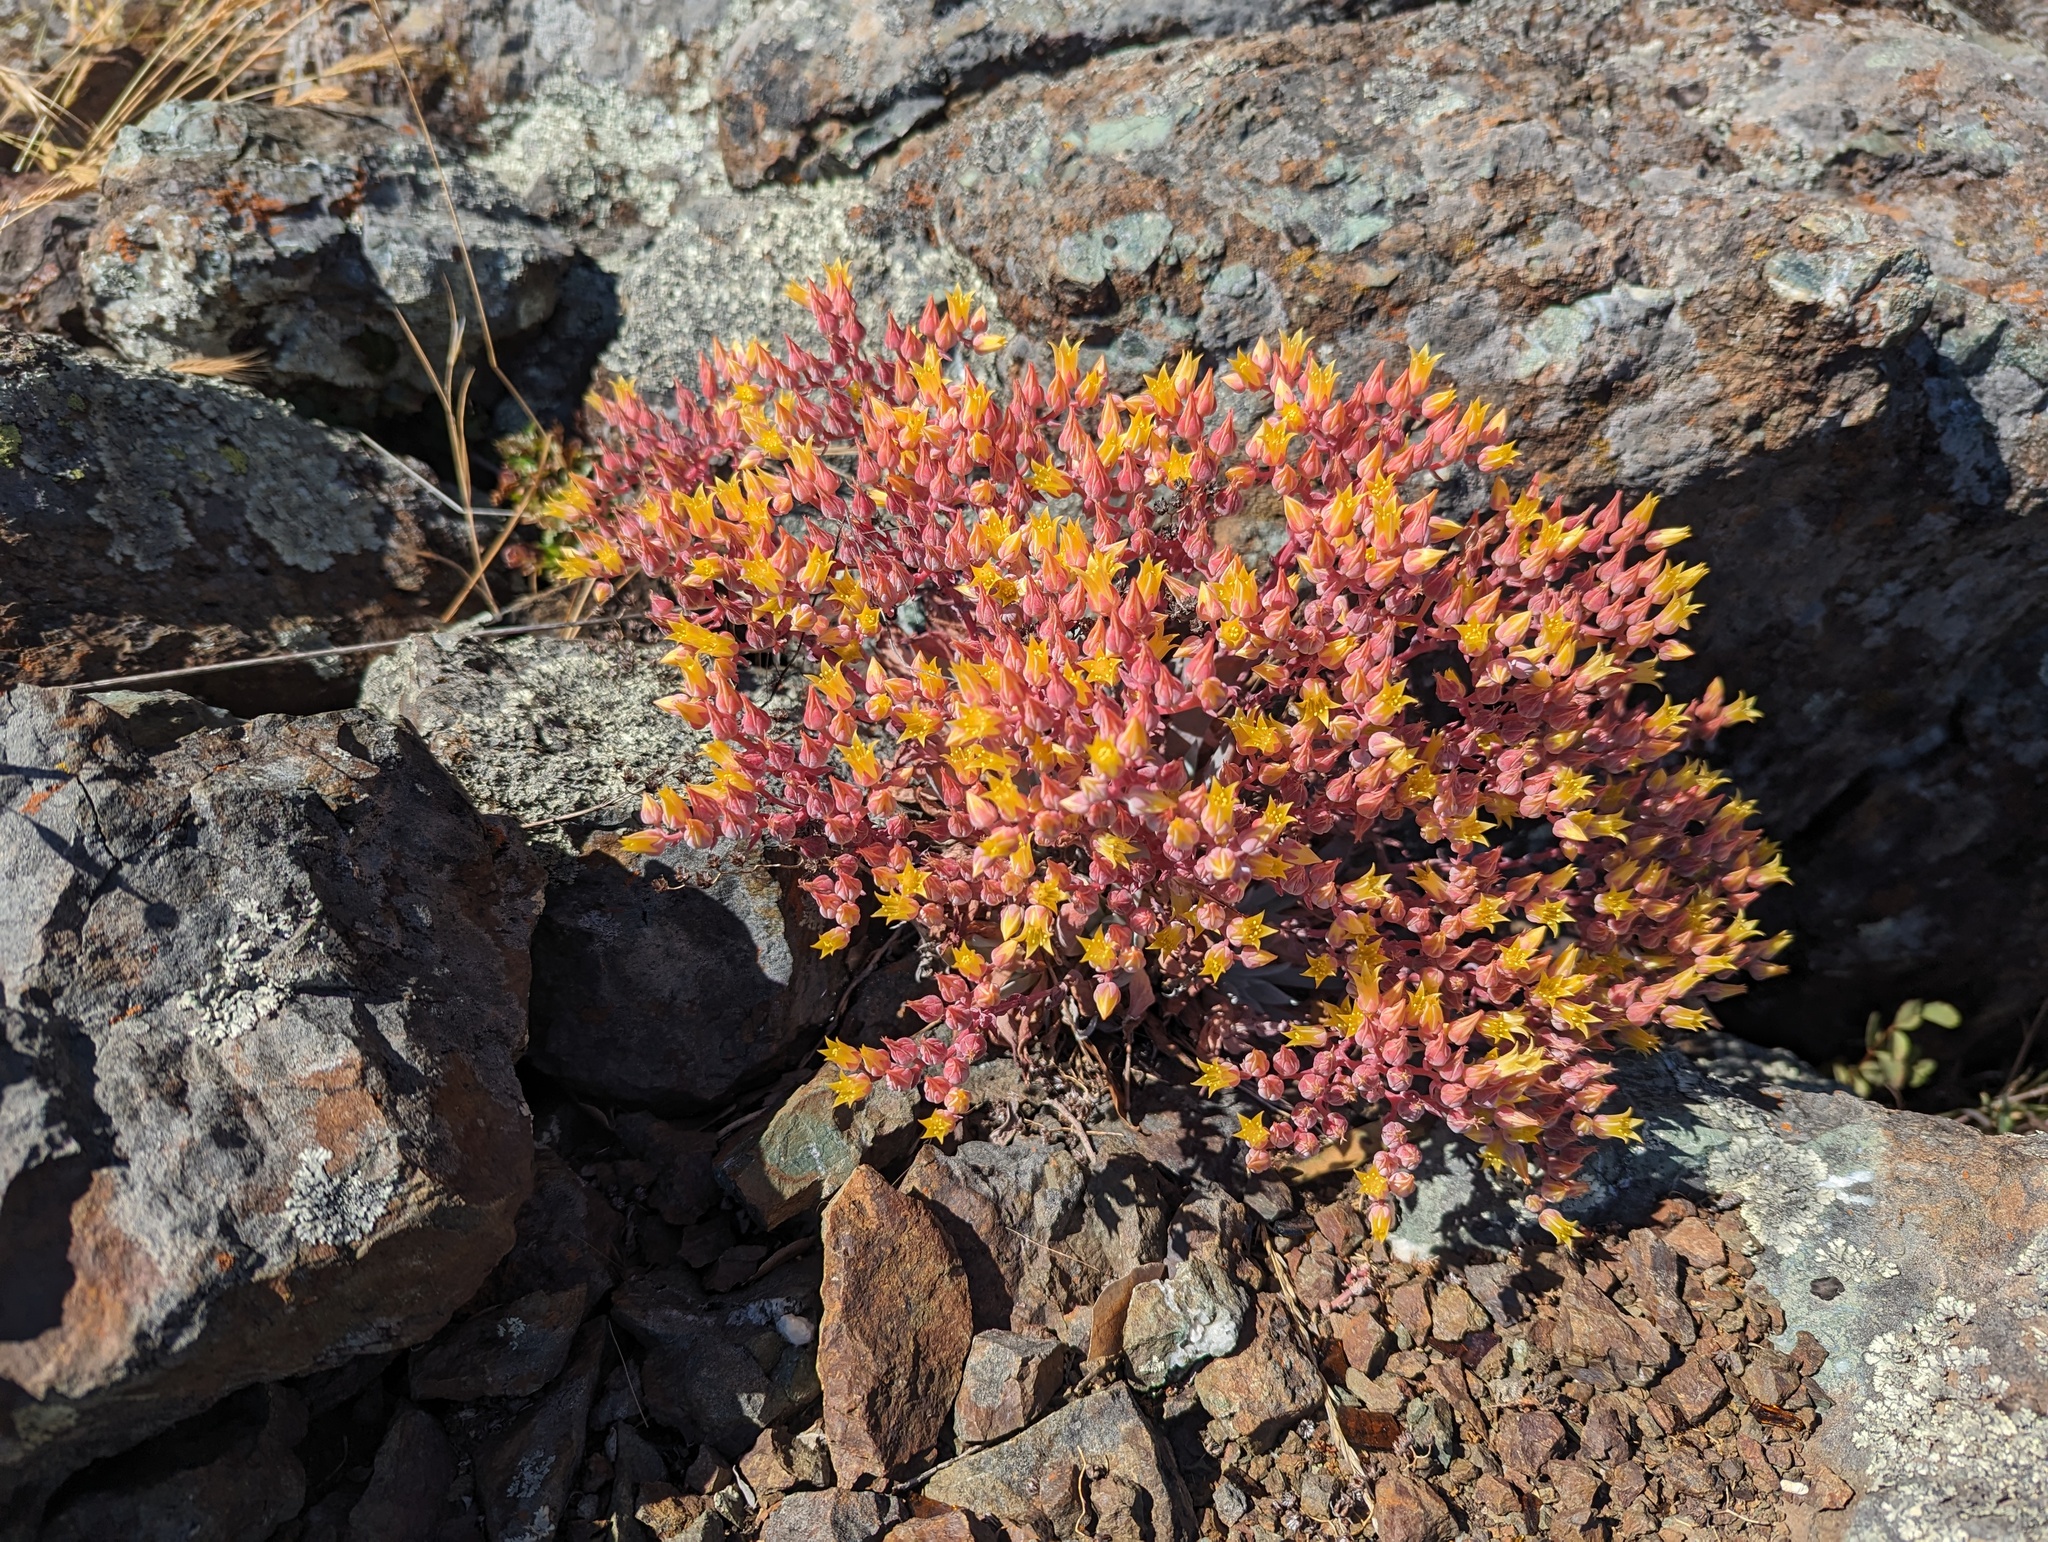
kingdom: Plantae
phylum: Tracheophyta
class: Magnoliopsida
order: Saxifragales
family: Crassulaceae
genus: Dudleya
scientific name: Dudleya cymosa
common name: Canyon dudleya
